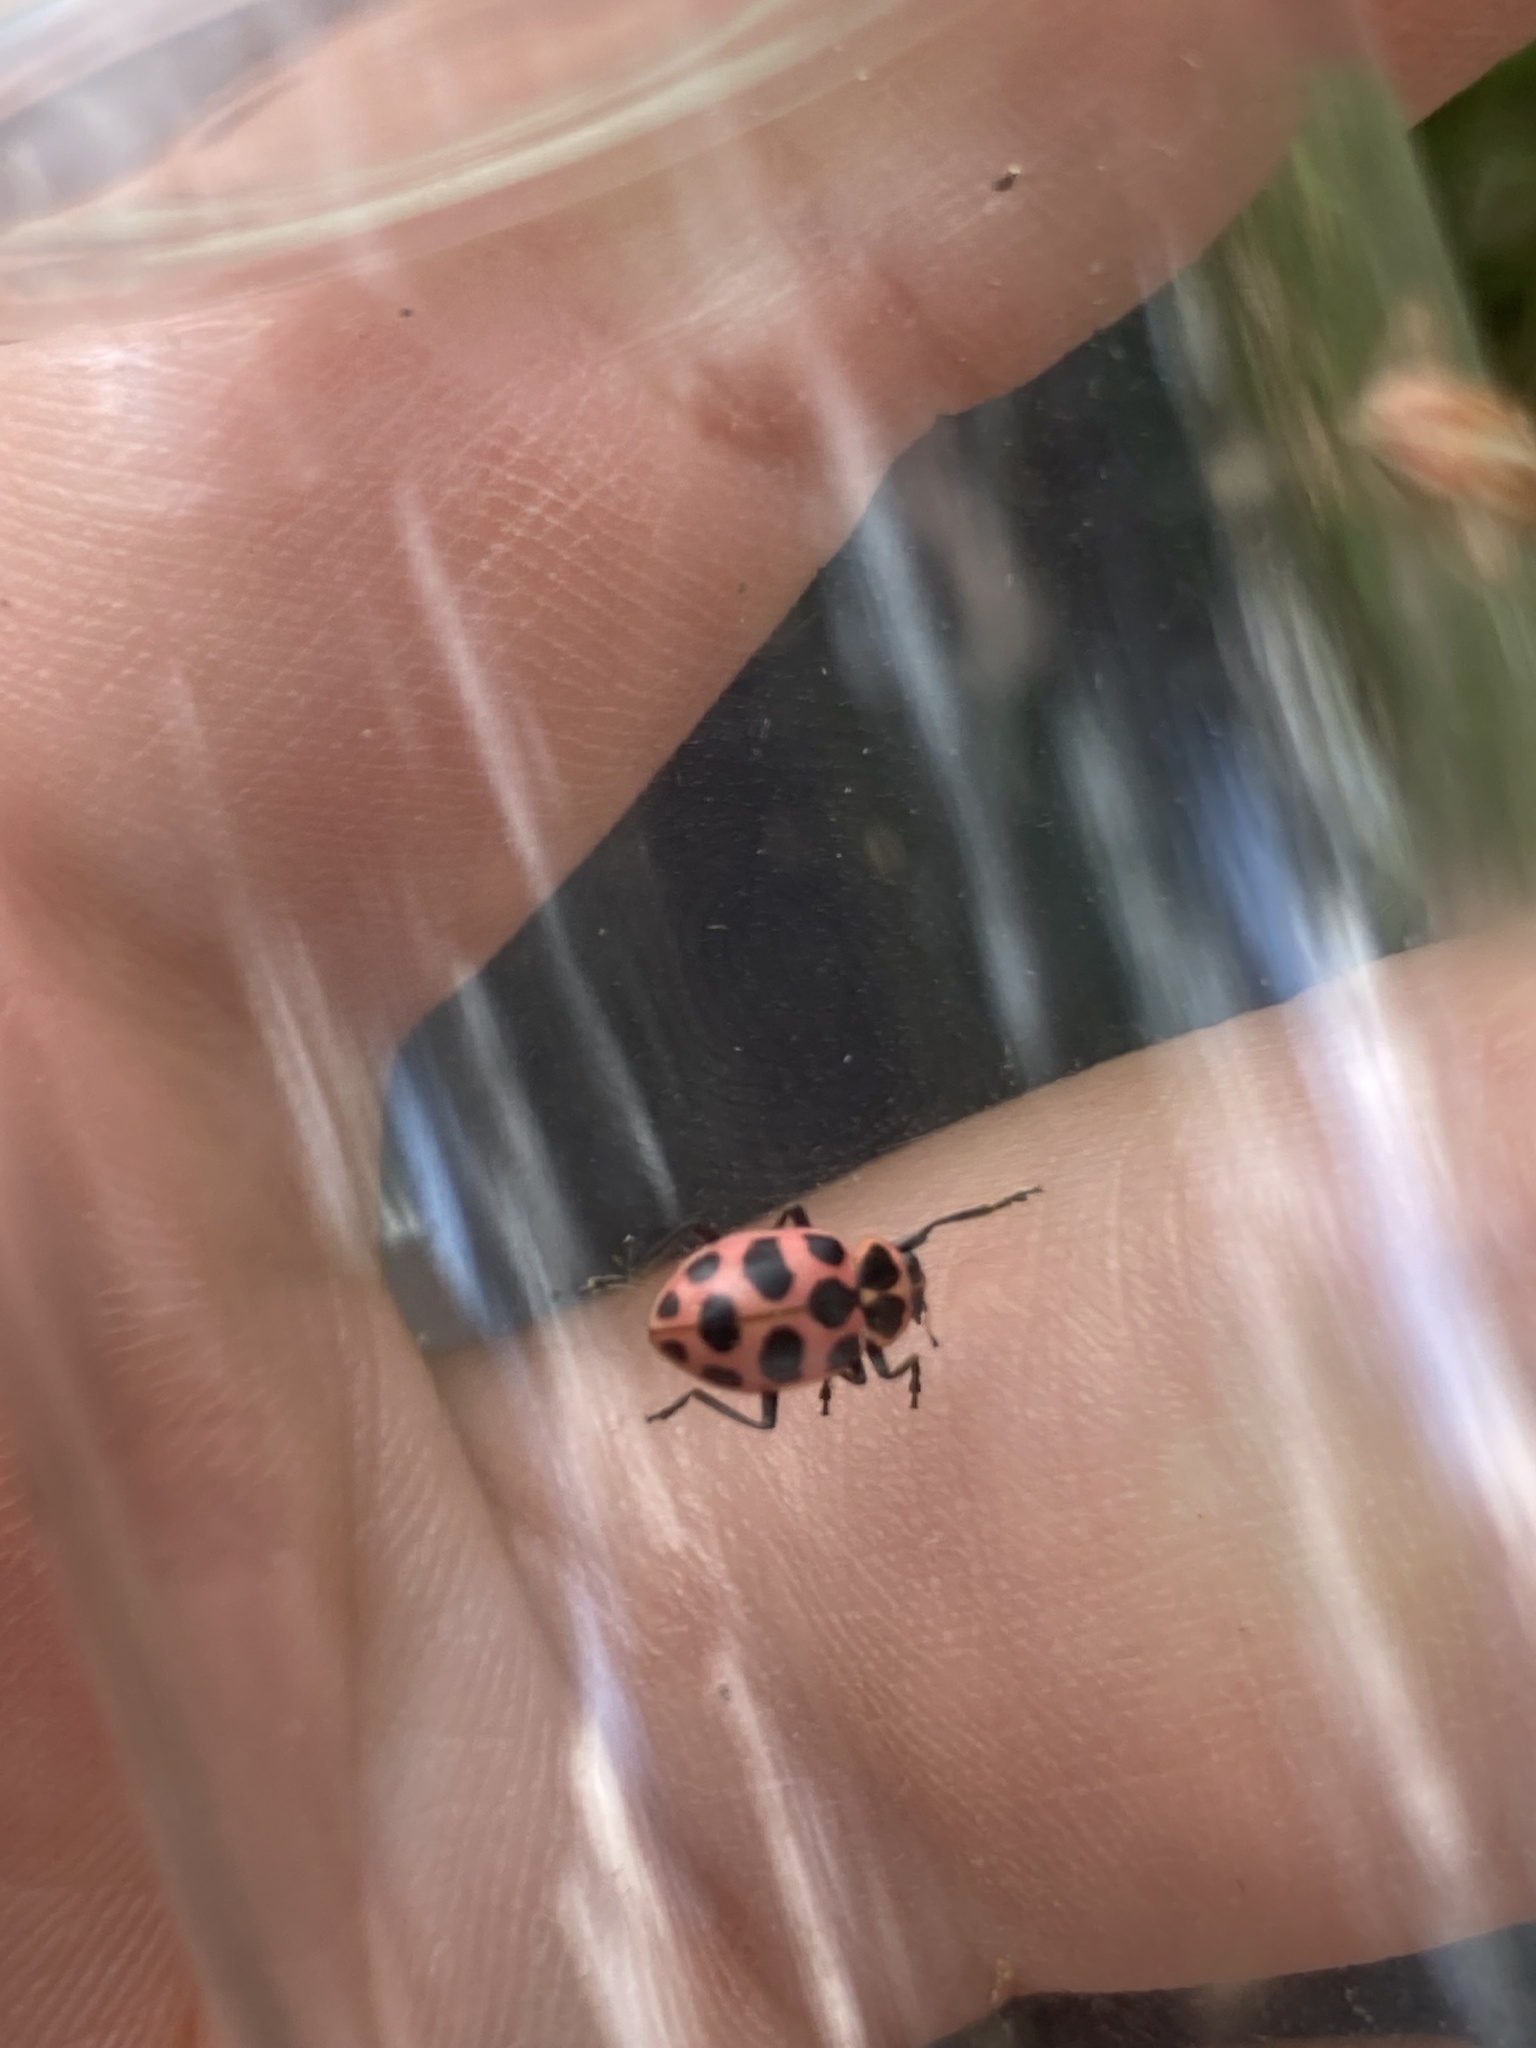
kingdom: Animalia
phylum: Arthropoda
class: Insecta
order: Coleoptera
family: Coccinellidae
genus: Coleomegilla
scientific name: Coleomegilla maculata
